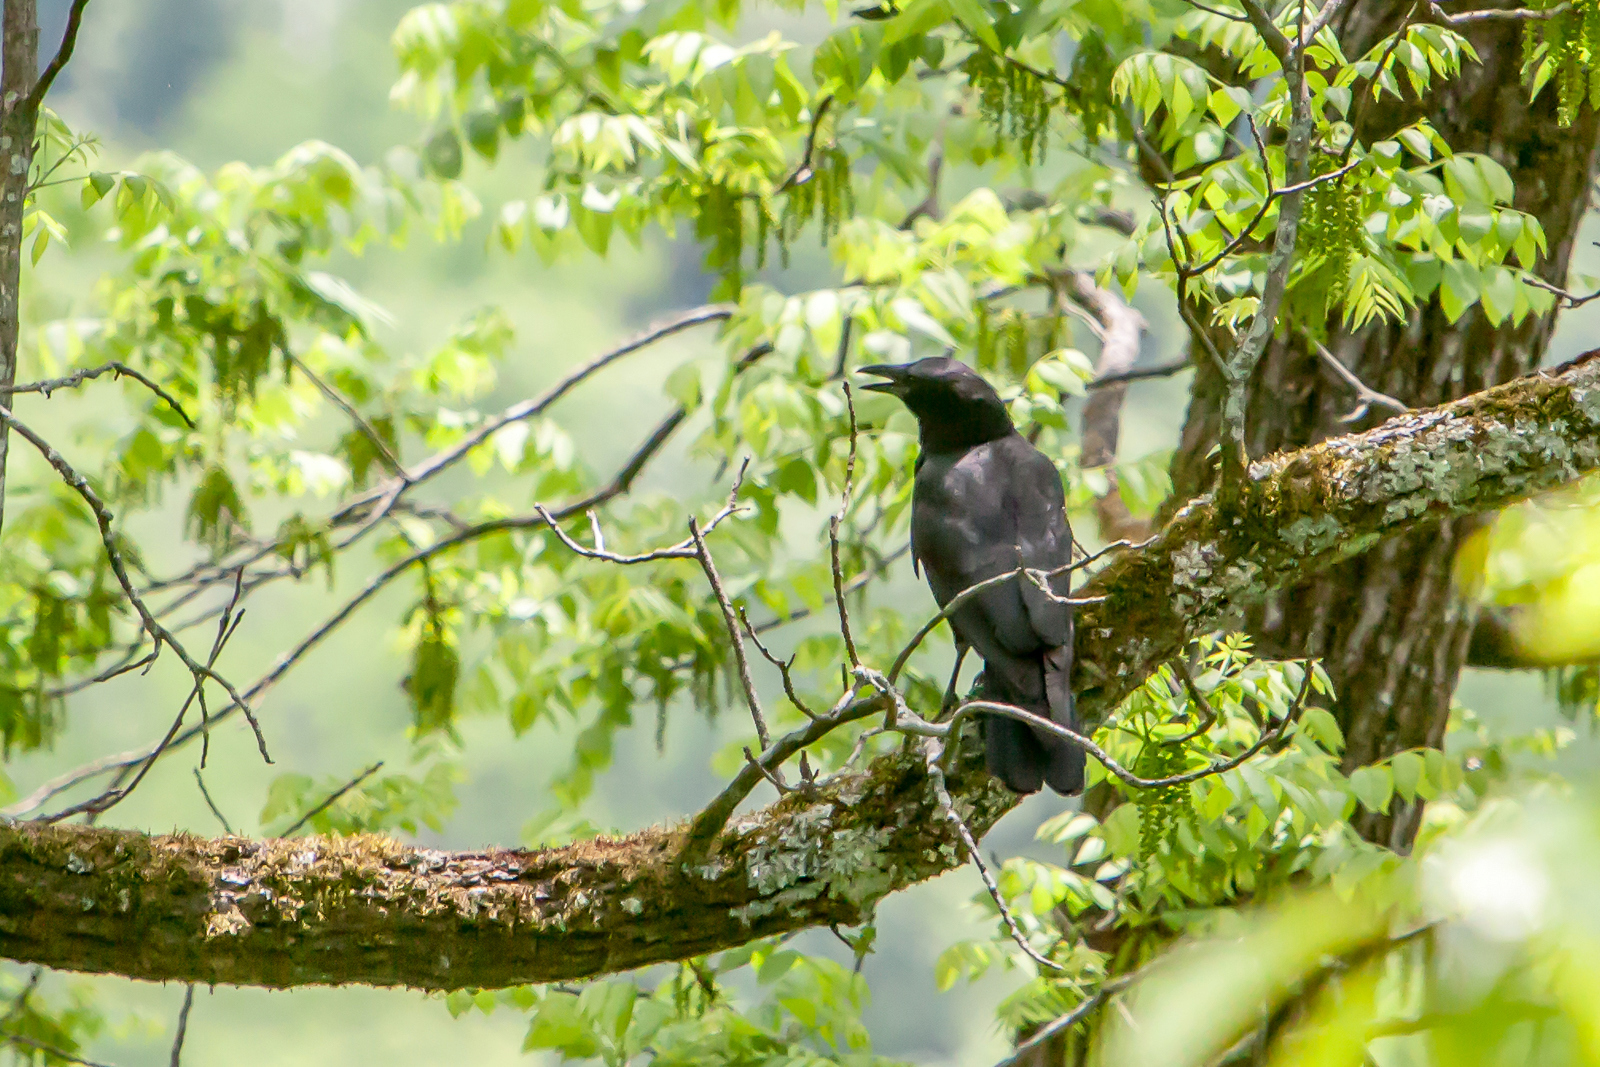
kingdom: Animalia
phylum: Chordata
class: Aves
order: Passeriformes
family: Corvidae
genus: Corvus
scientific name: Corvus brachyrhynchos
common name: American crow
